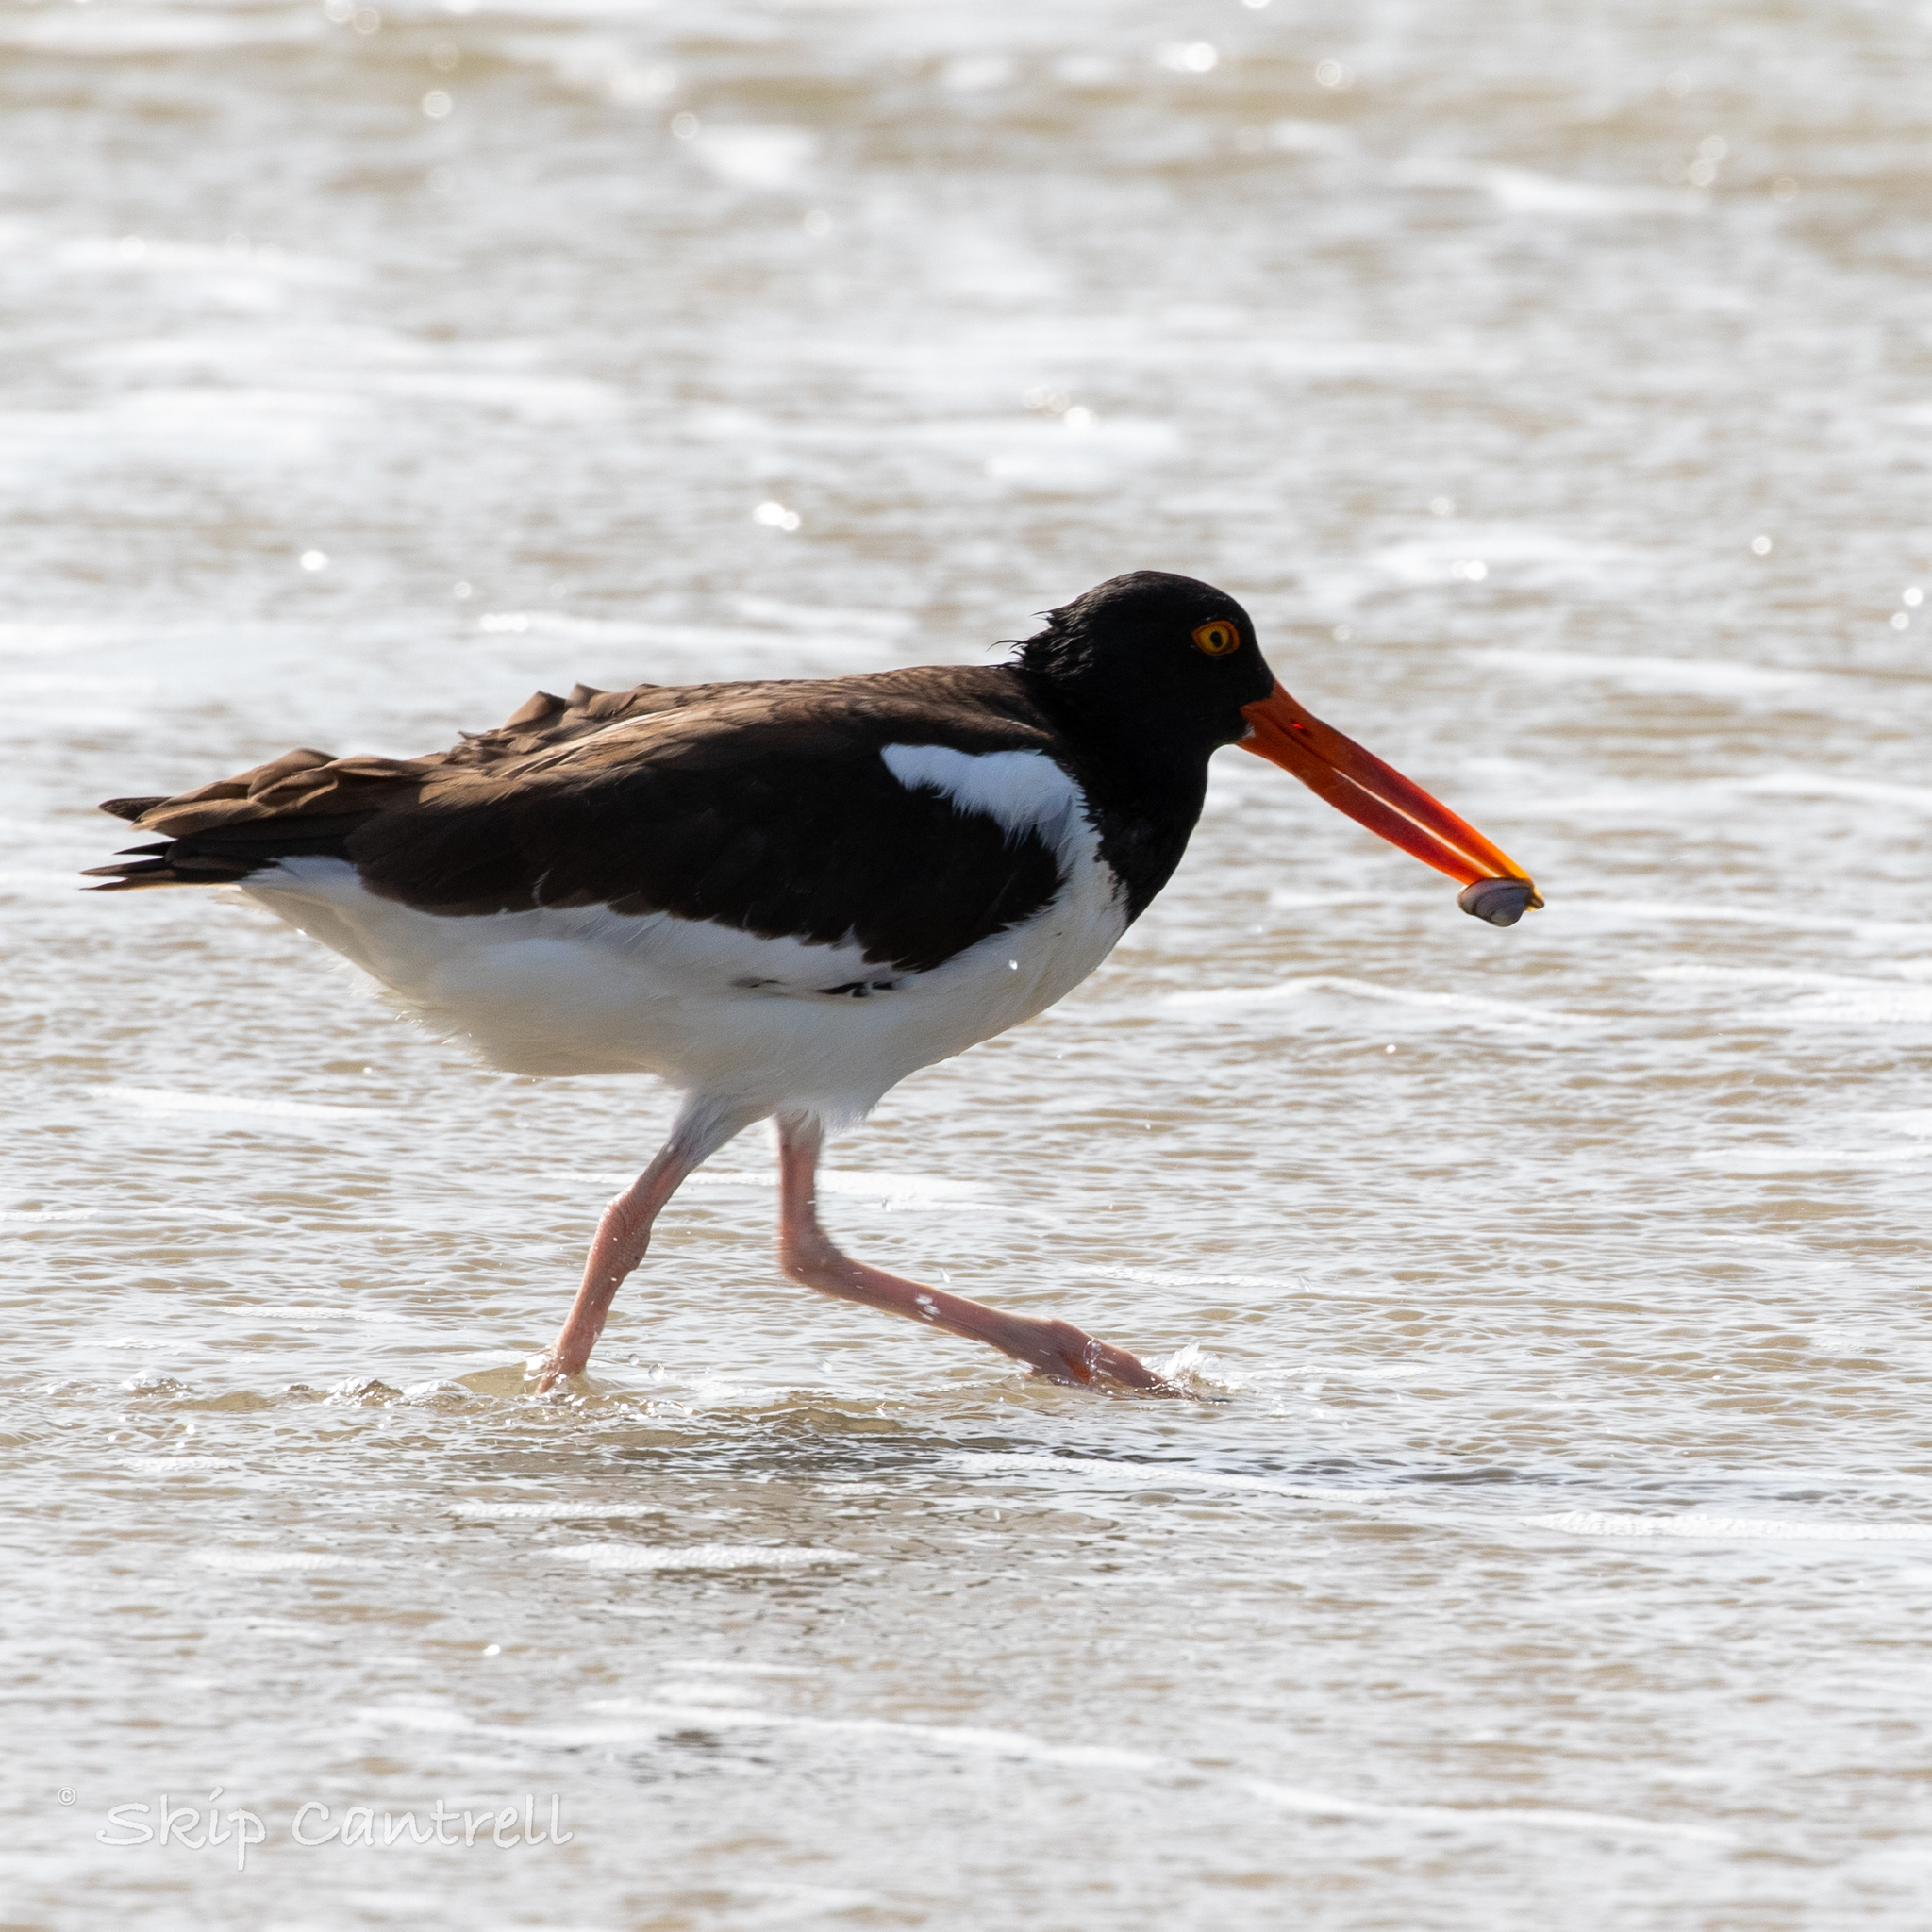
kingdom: Animalia
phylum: Chordata
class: Aves
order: Charadriiformes
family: Haematopodidae
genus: Haematopus
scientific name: Haematopus palliatus
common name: American oystercatcher
